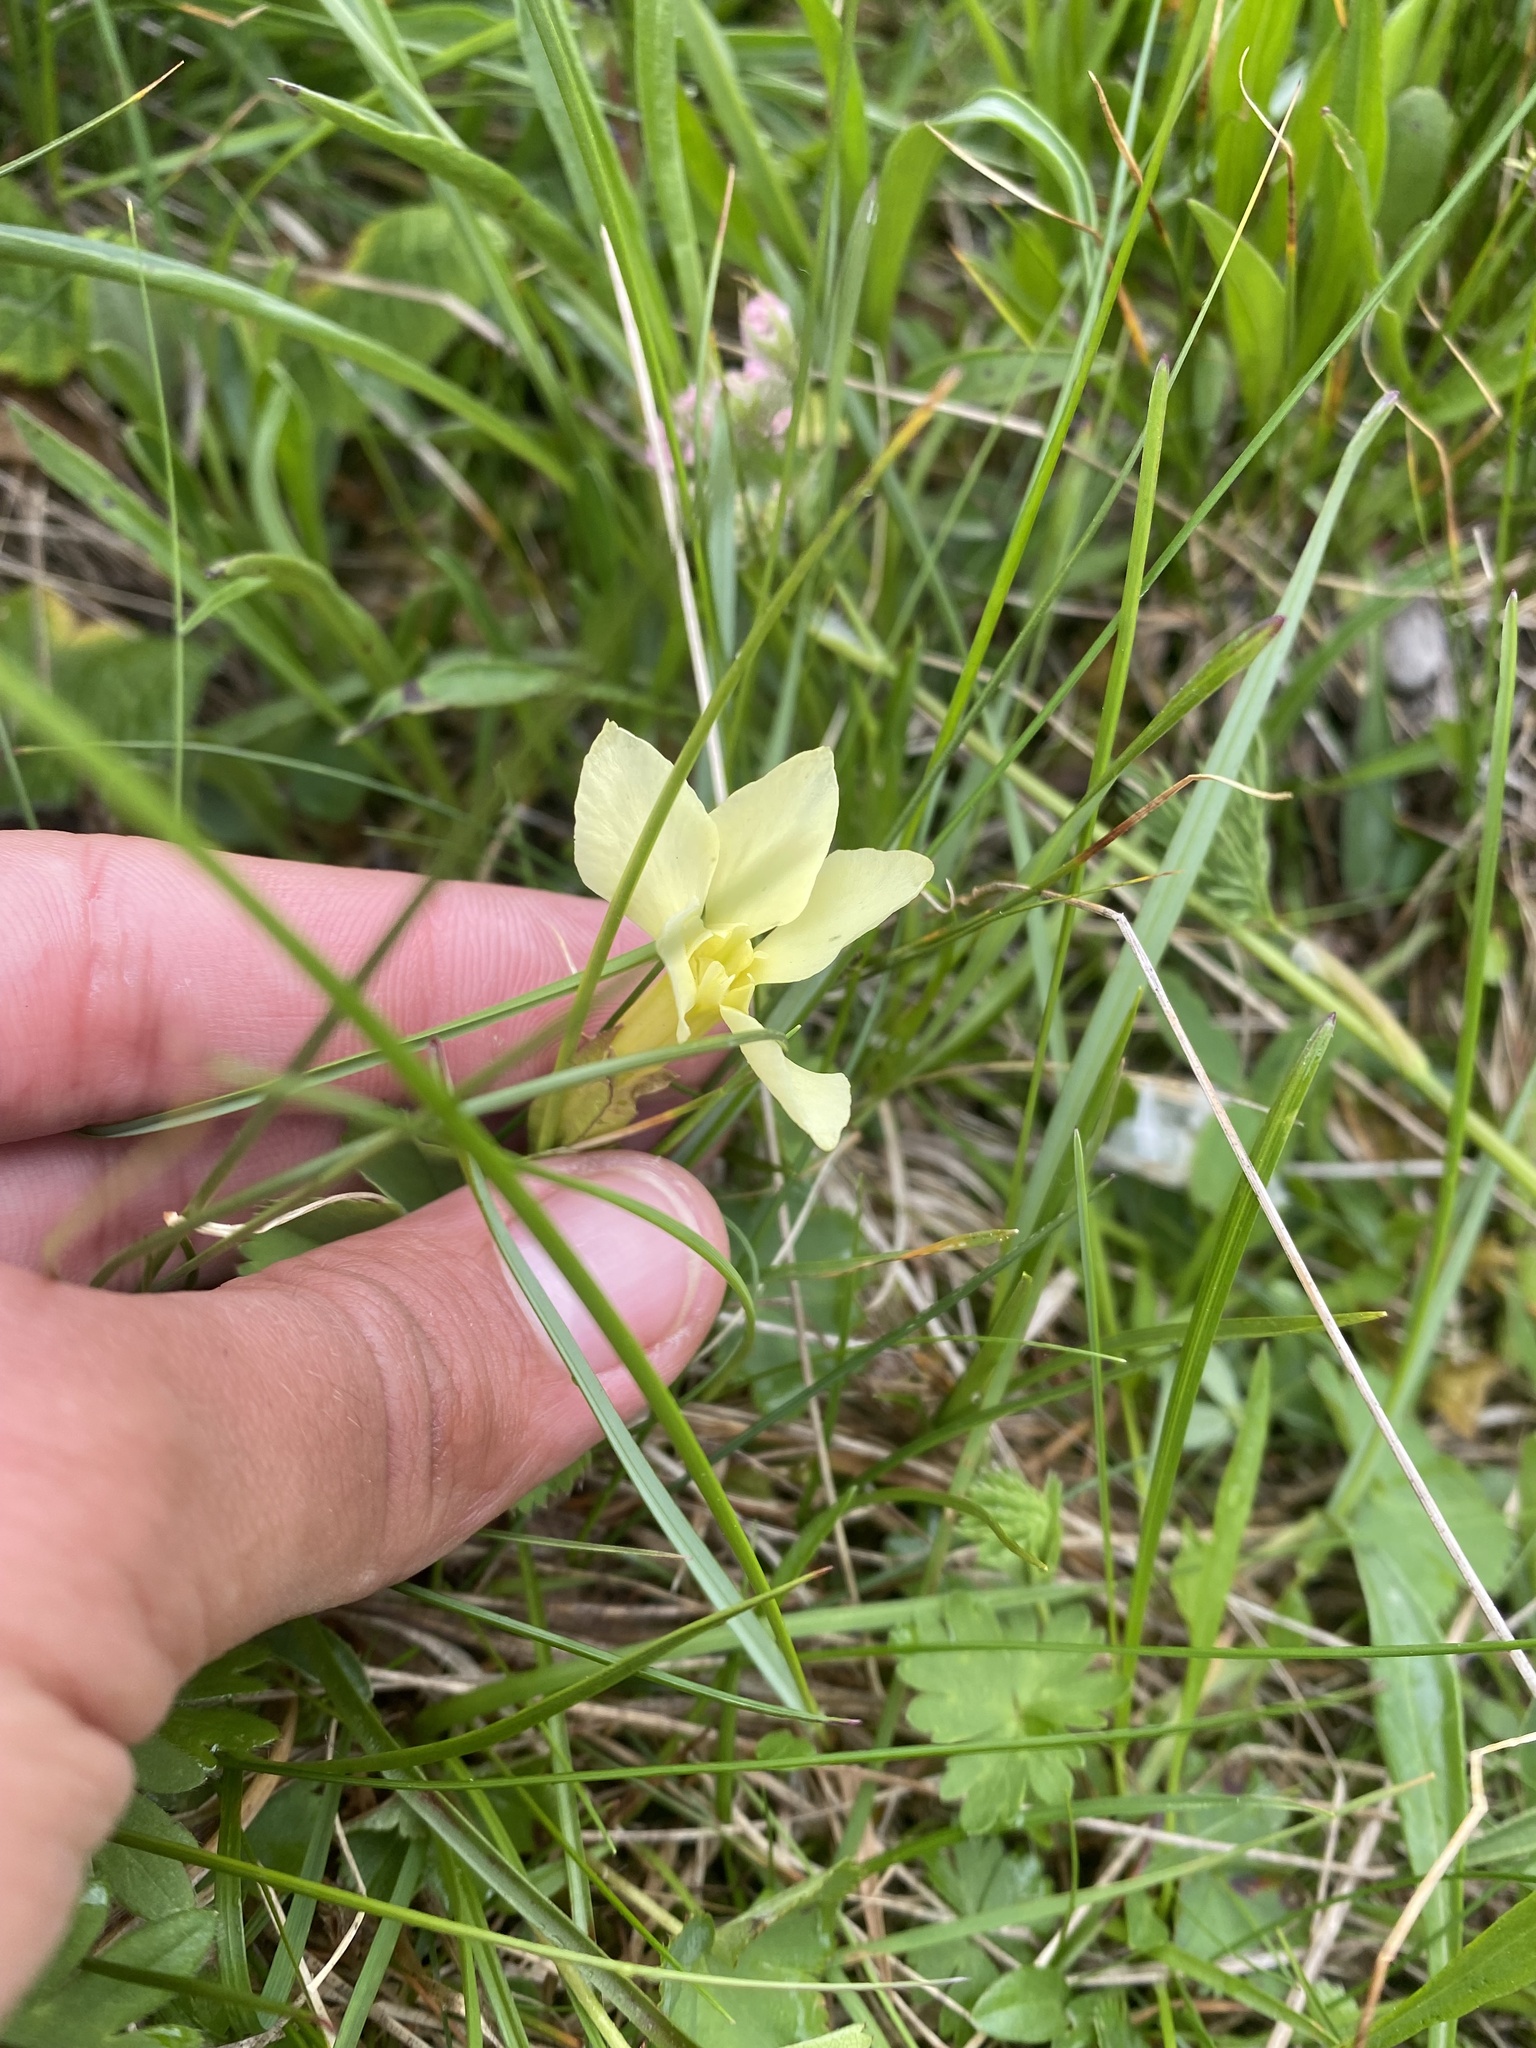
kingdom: Plantae
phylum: Tracheophyta
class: Magnoliopsida
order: Gentianales
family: Gentianaceae
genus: Gentiana
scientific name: Gentiana verna
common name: Spring gentian
